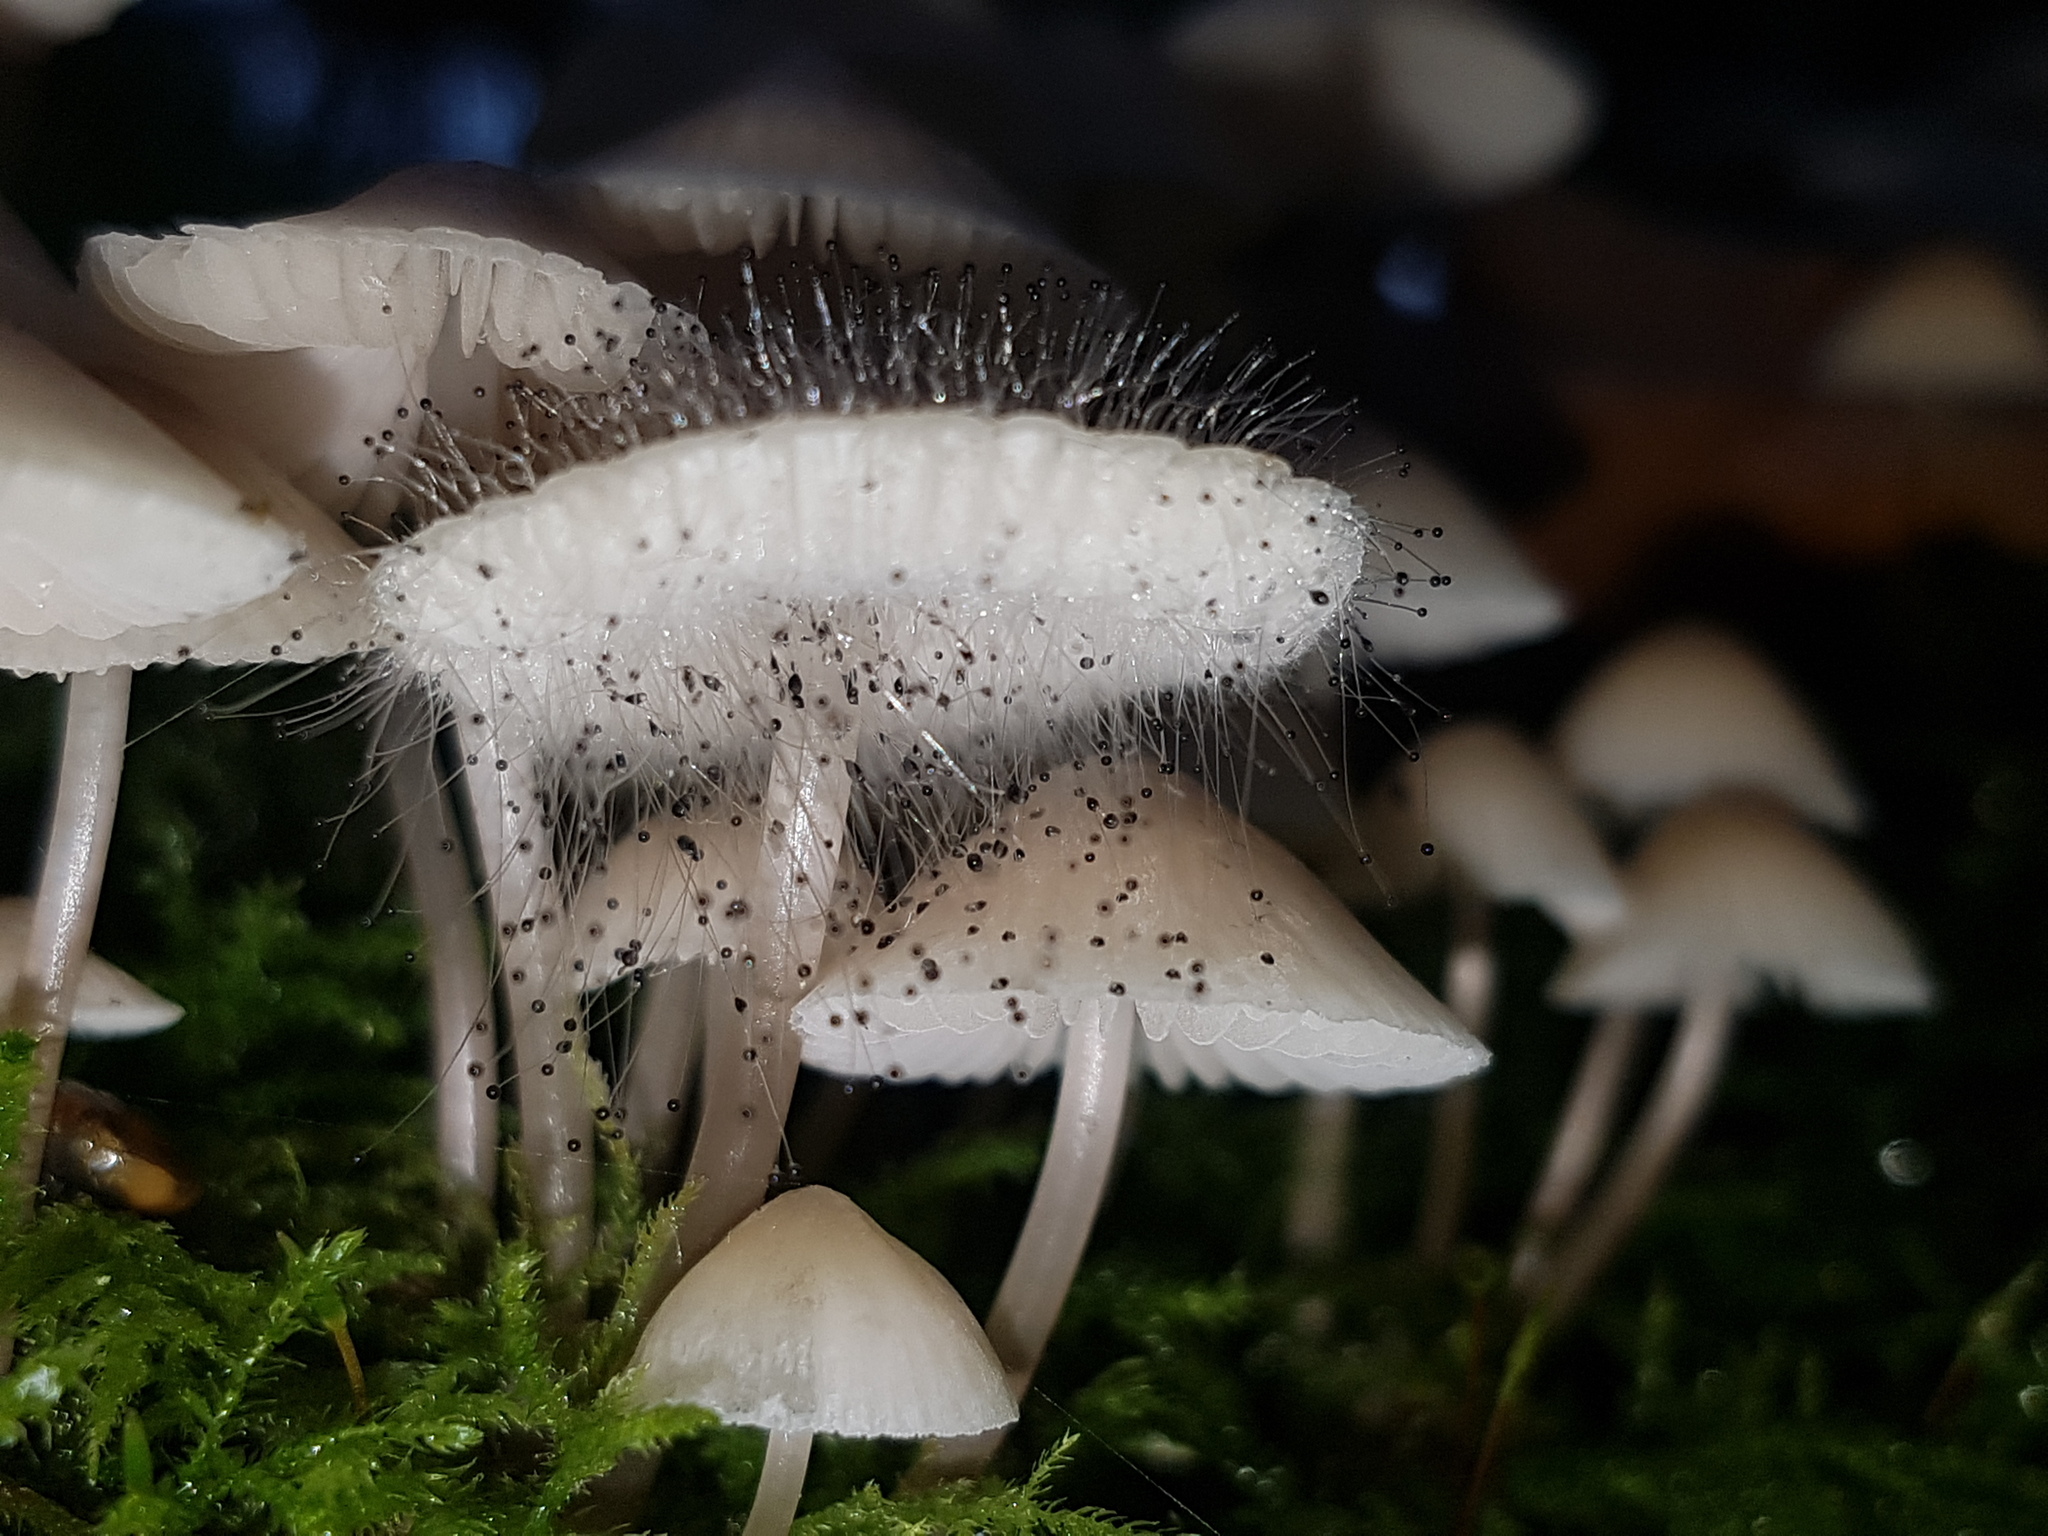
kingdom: Fungi
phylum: Mucoromycota
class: Mucoromycetes
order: Mucorales
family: Phycomycetaceae
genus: Spinellus
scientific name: Spinellus fusiger
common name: Bonnet mould
